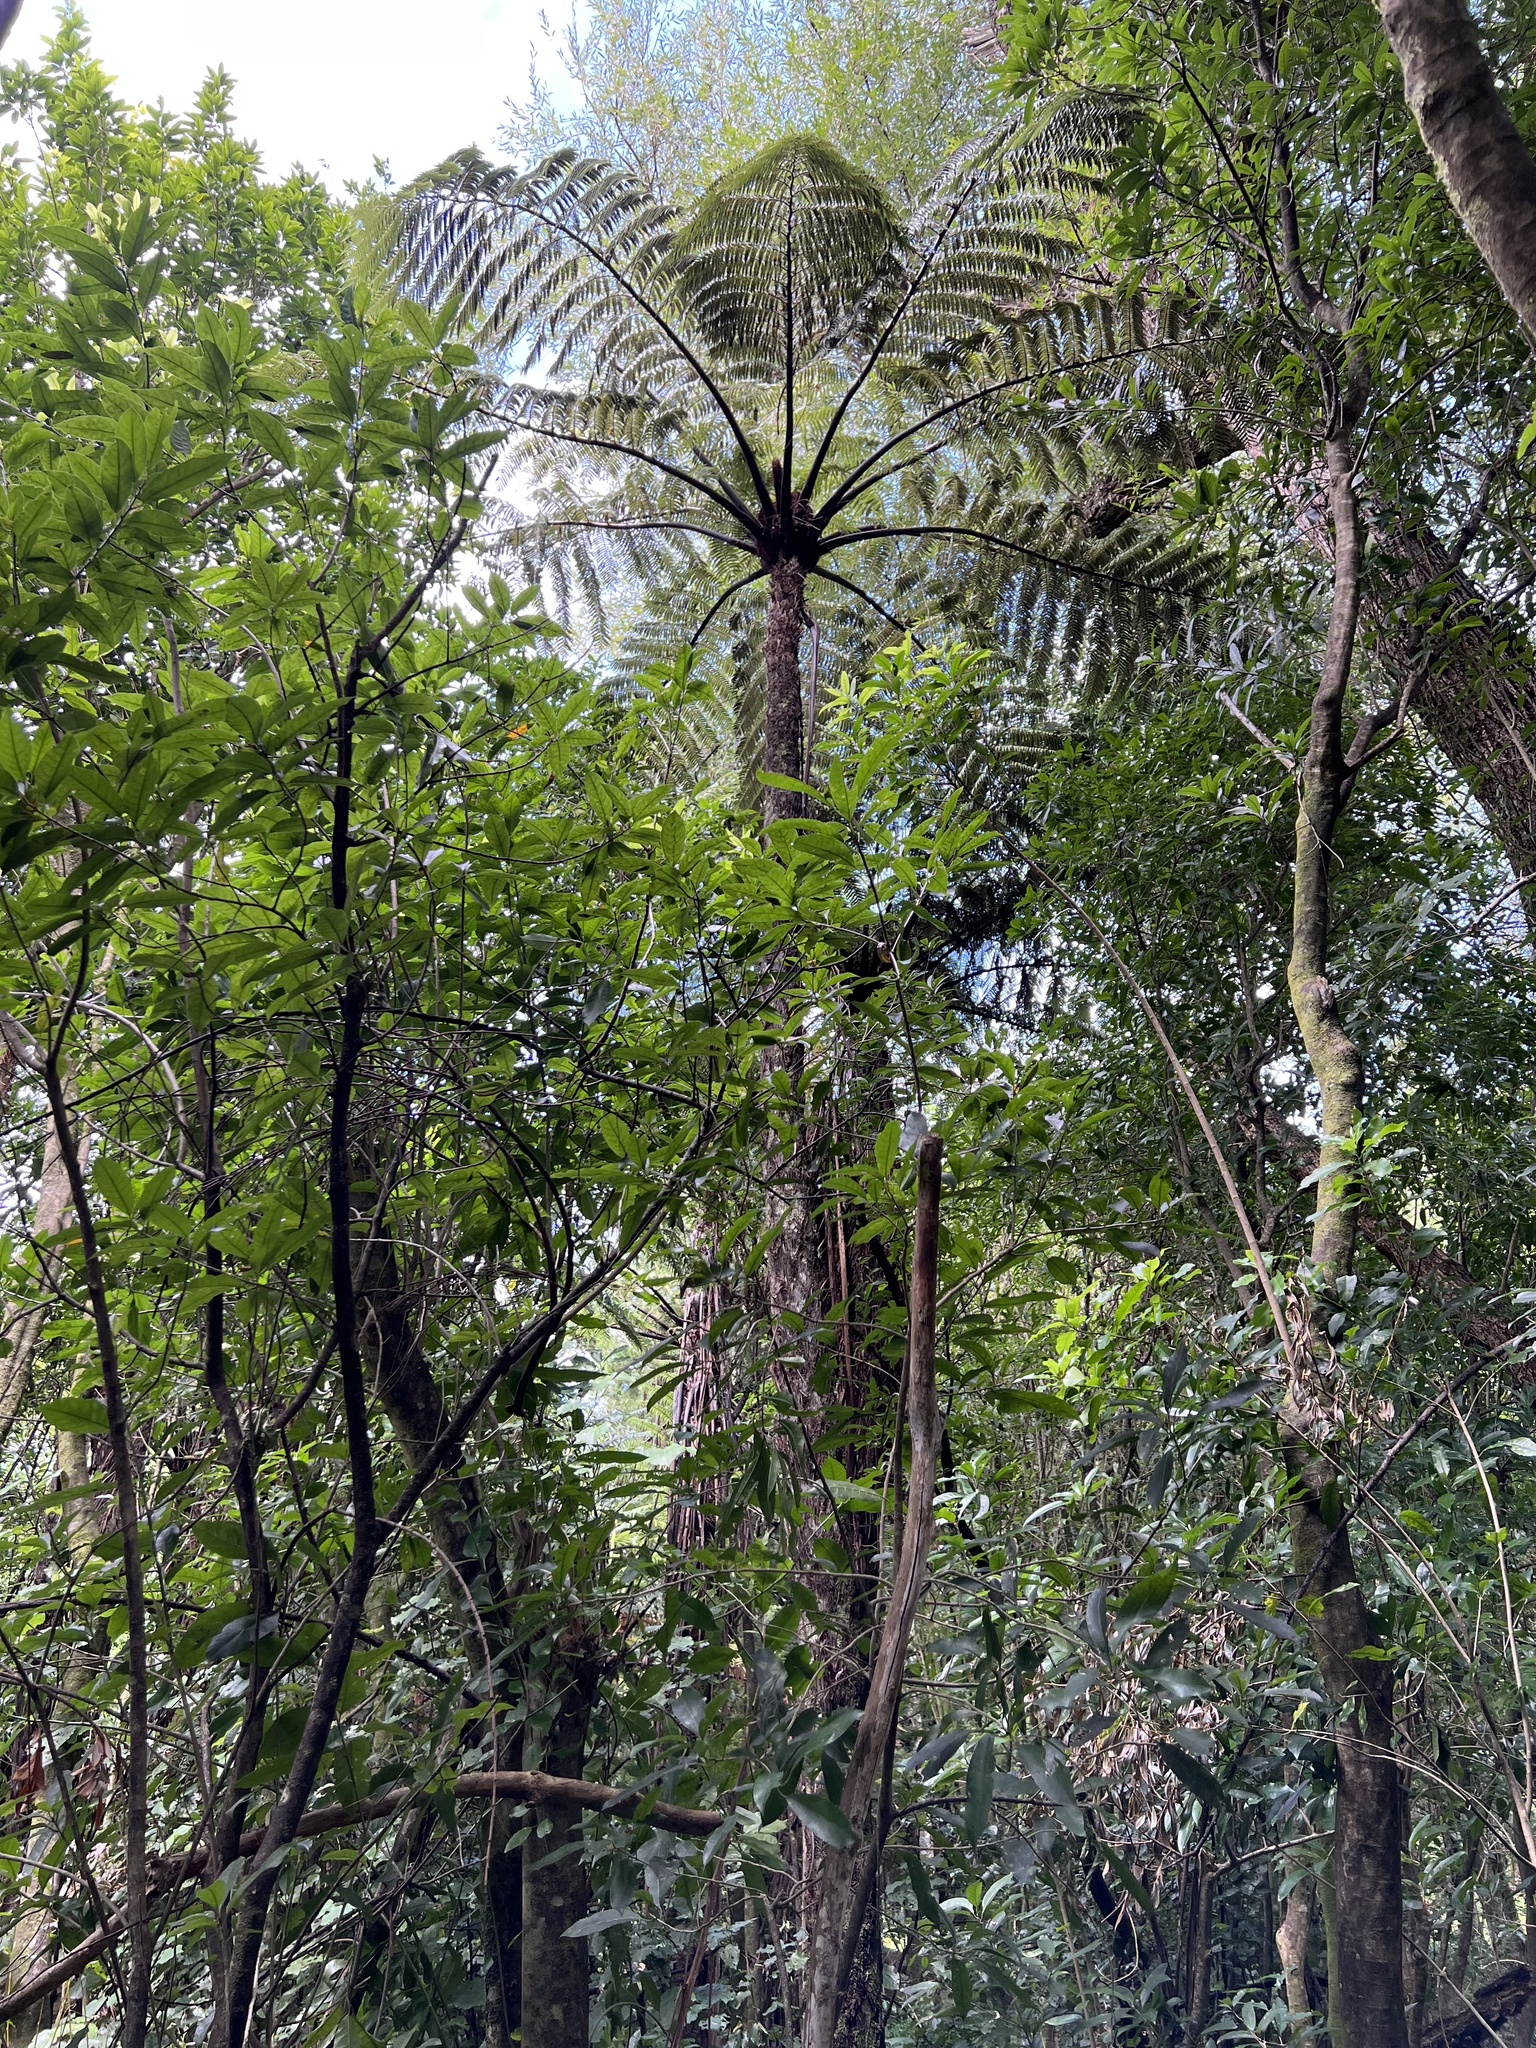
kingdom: Plantae
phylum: Tracheophyta
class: Polypodiopsida
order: Cyatheales
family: Cyatheaceae
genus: Sphaeropteris
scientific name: Sphaeropteris medullaris
